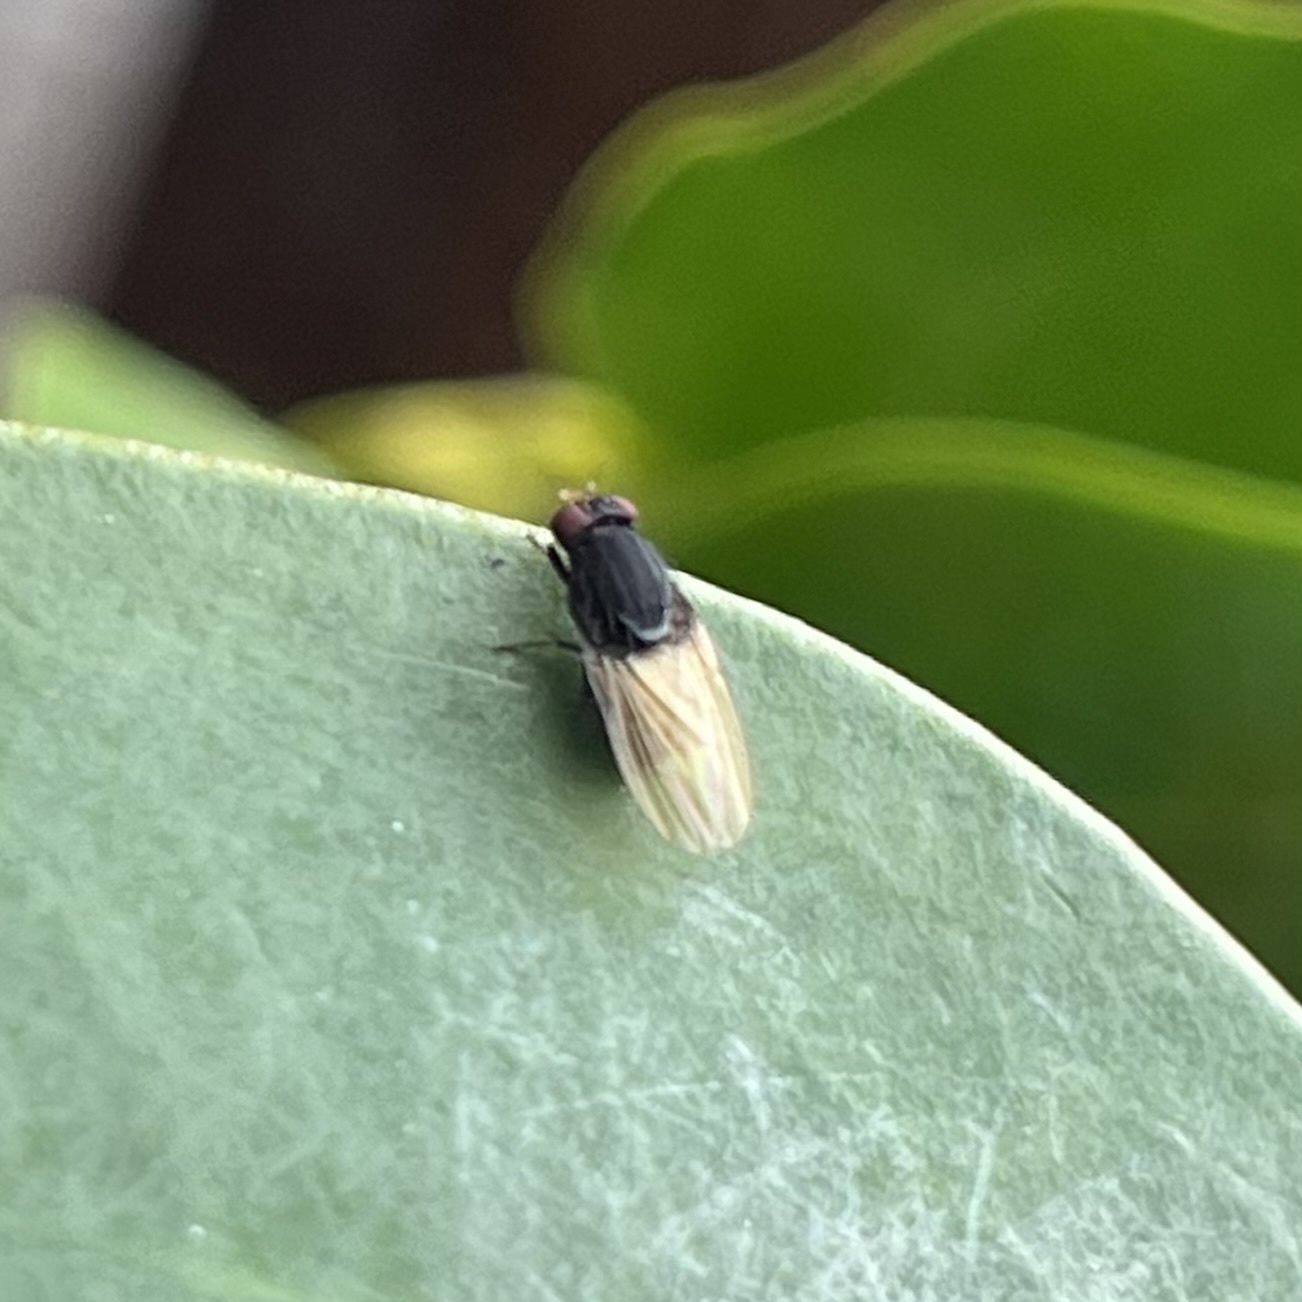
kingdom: Animalia
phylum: Arthropoda
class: Insecta
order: Diptera
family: Lauxaniidae
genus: Minettia
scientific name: Minettia longipennis
